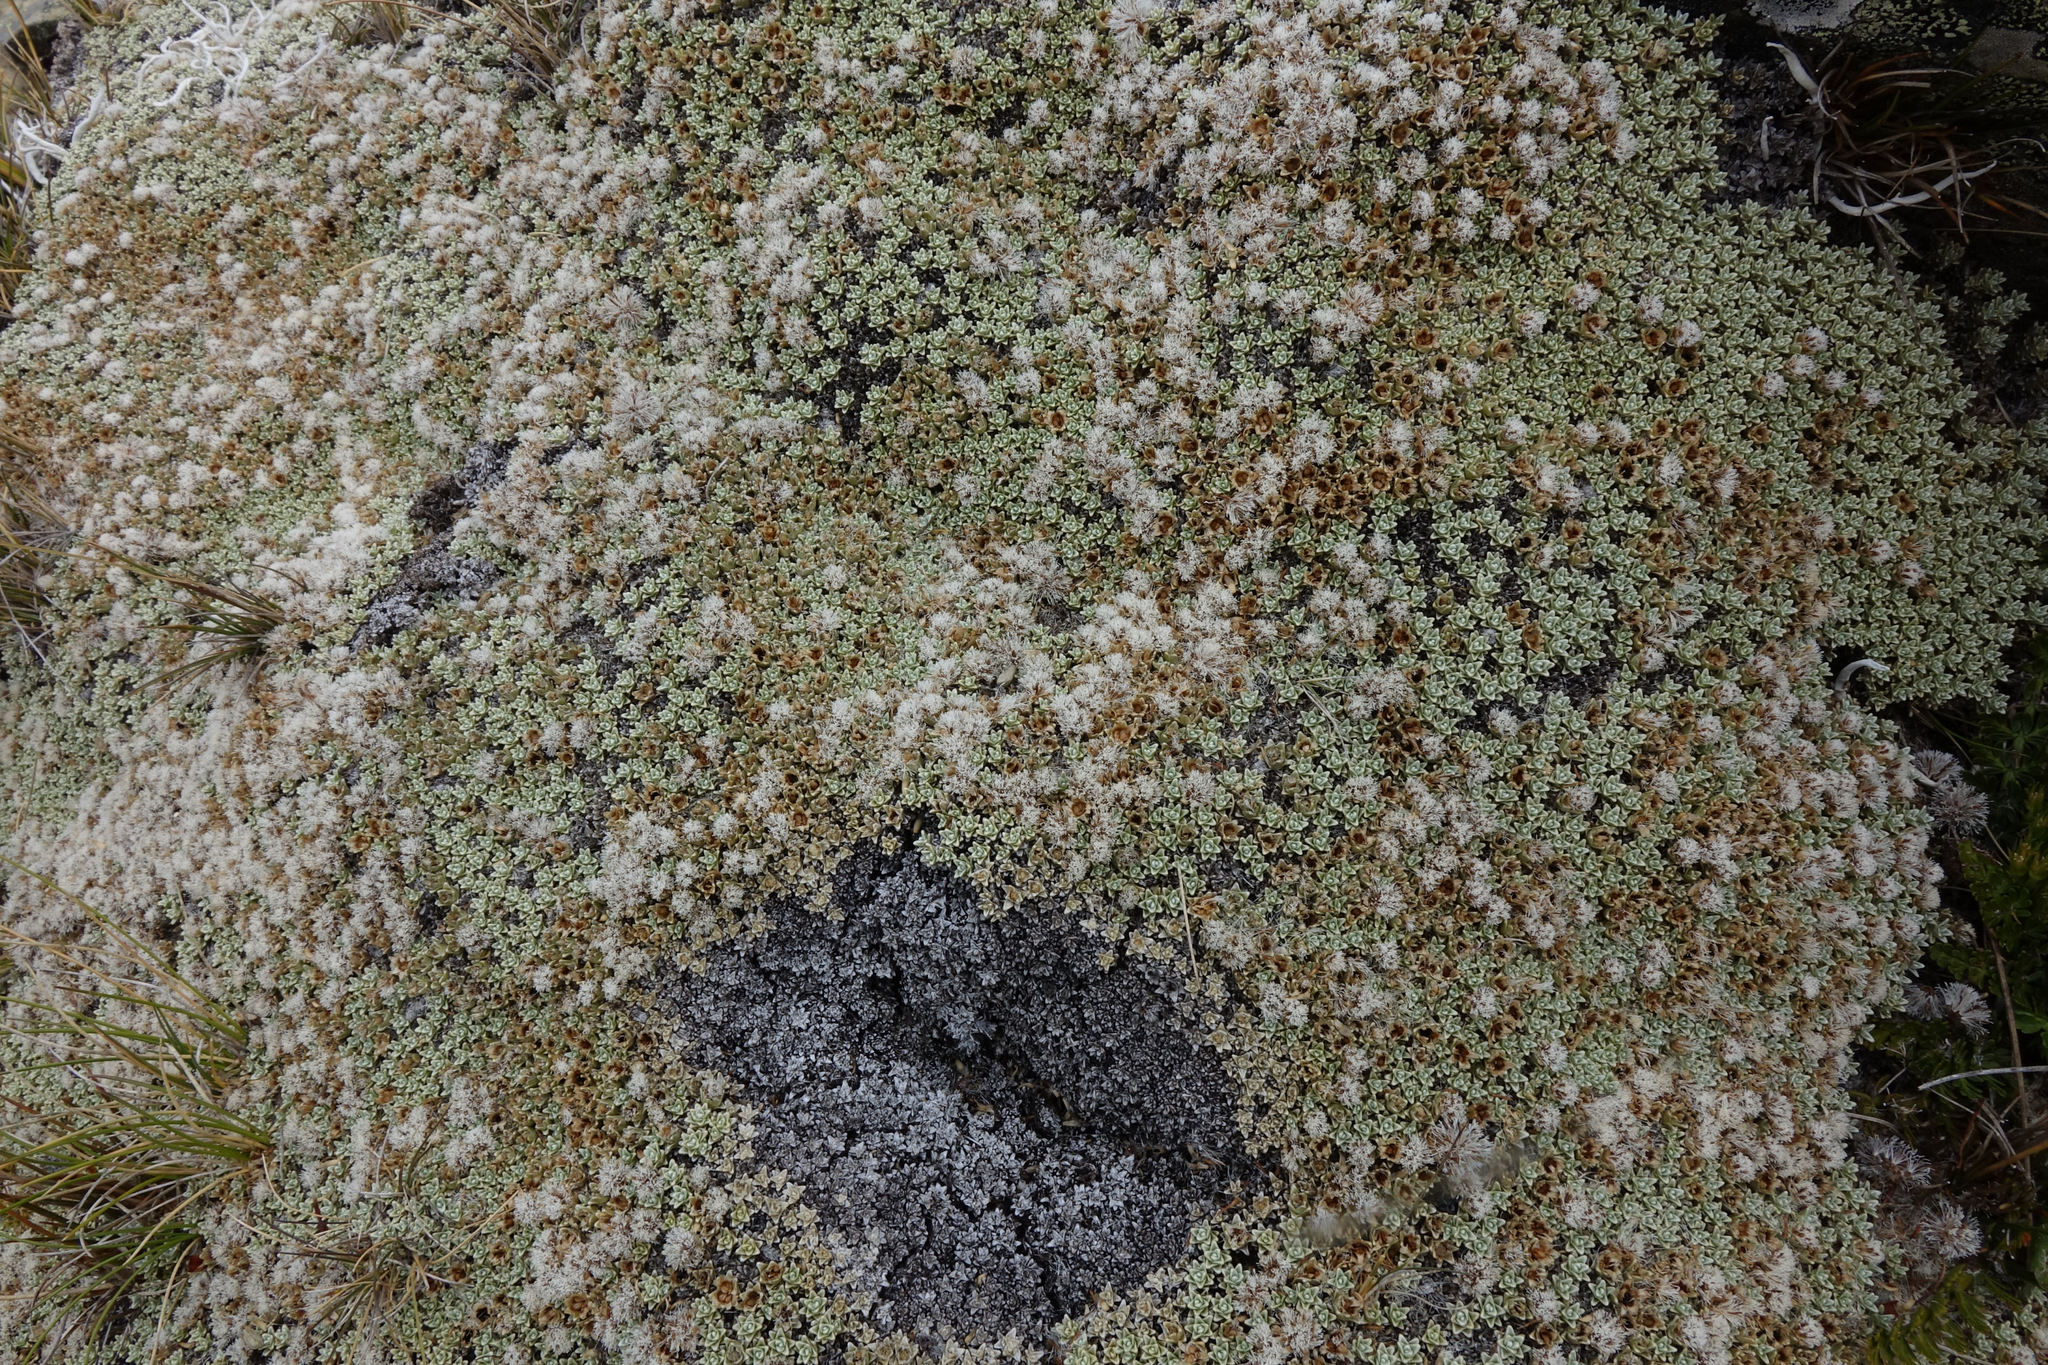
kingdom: Plantae
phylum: Tracheophyta
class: Magnoliopsida
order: Asterales
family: Asteraceae
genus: Raoulia
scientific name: Raoulia hectorii
